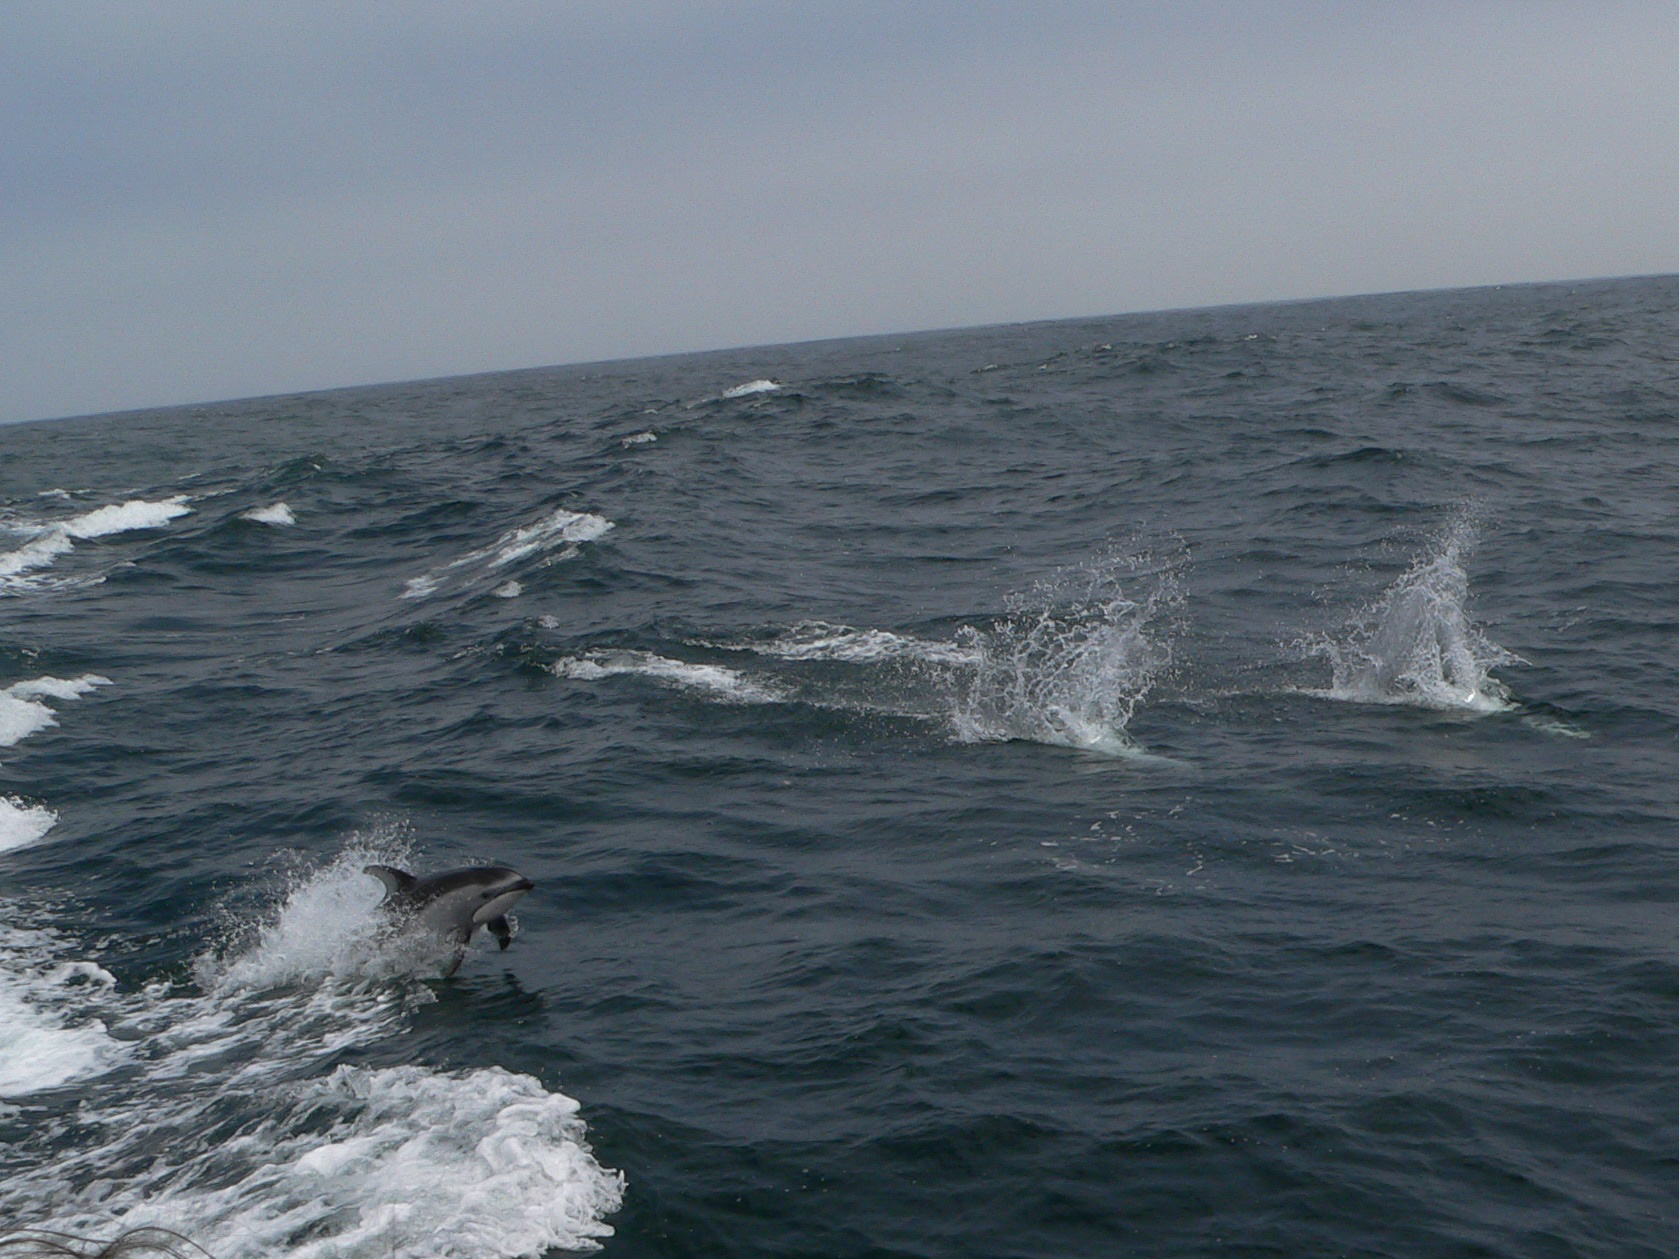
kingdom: Animalia
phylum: Chordata
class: Mammalia
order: Cetacea
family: Delphinidae
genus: Lagenorhynchus
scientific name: Lagenorhynchus obliquidens
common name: Pacific white-sided dolphin
